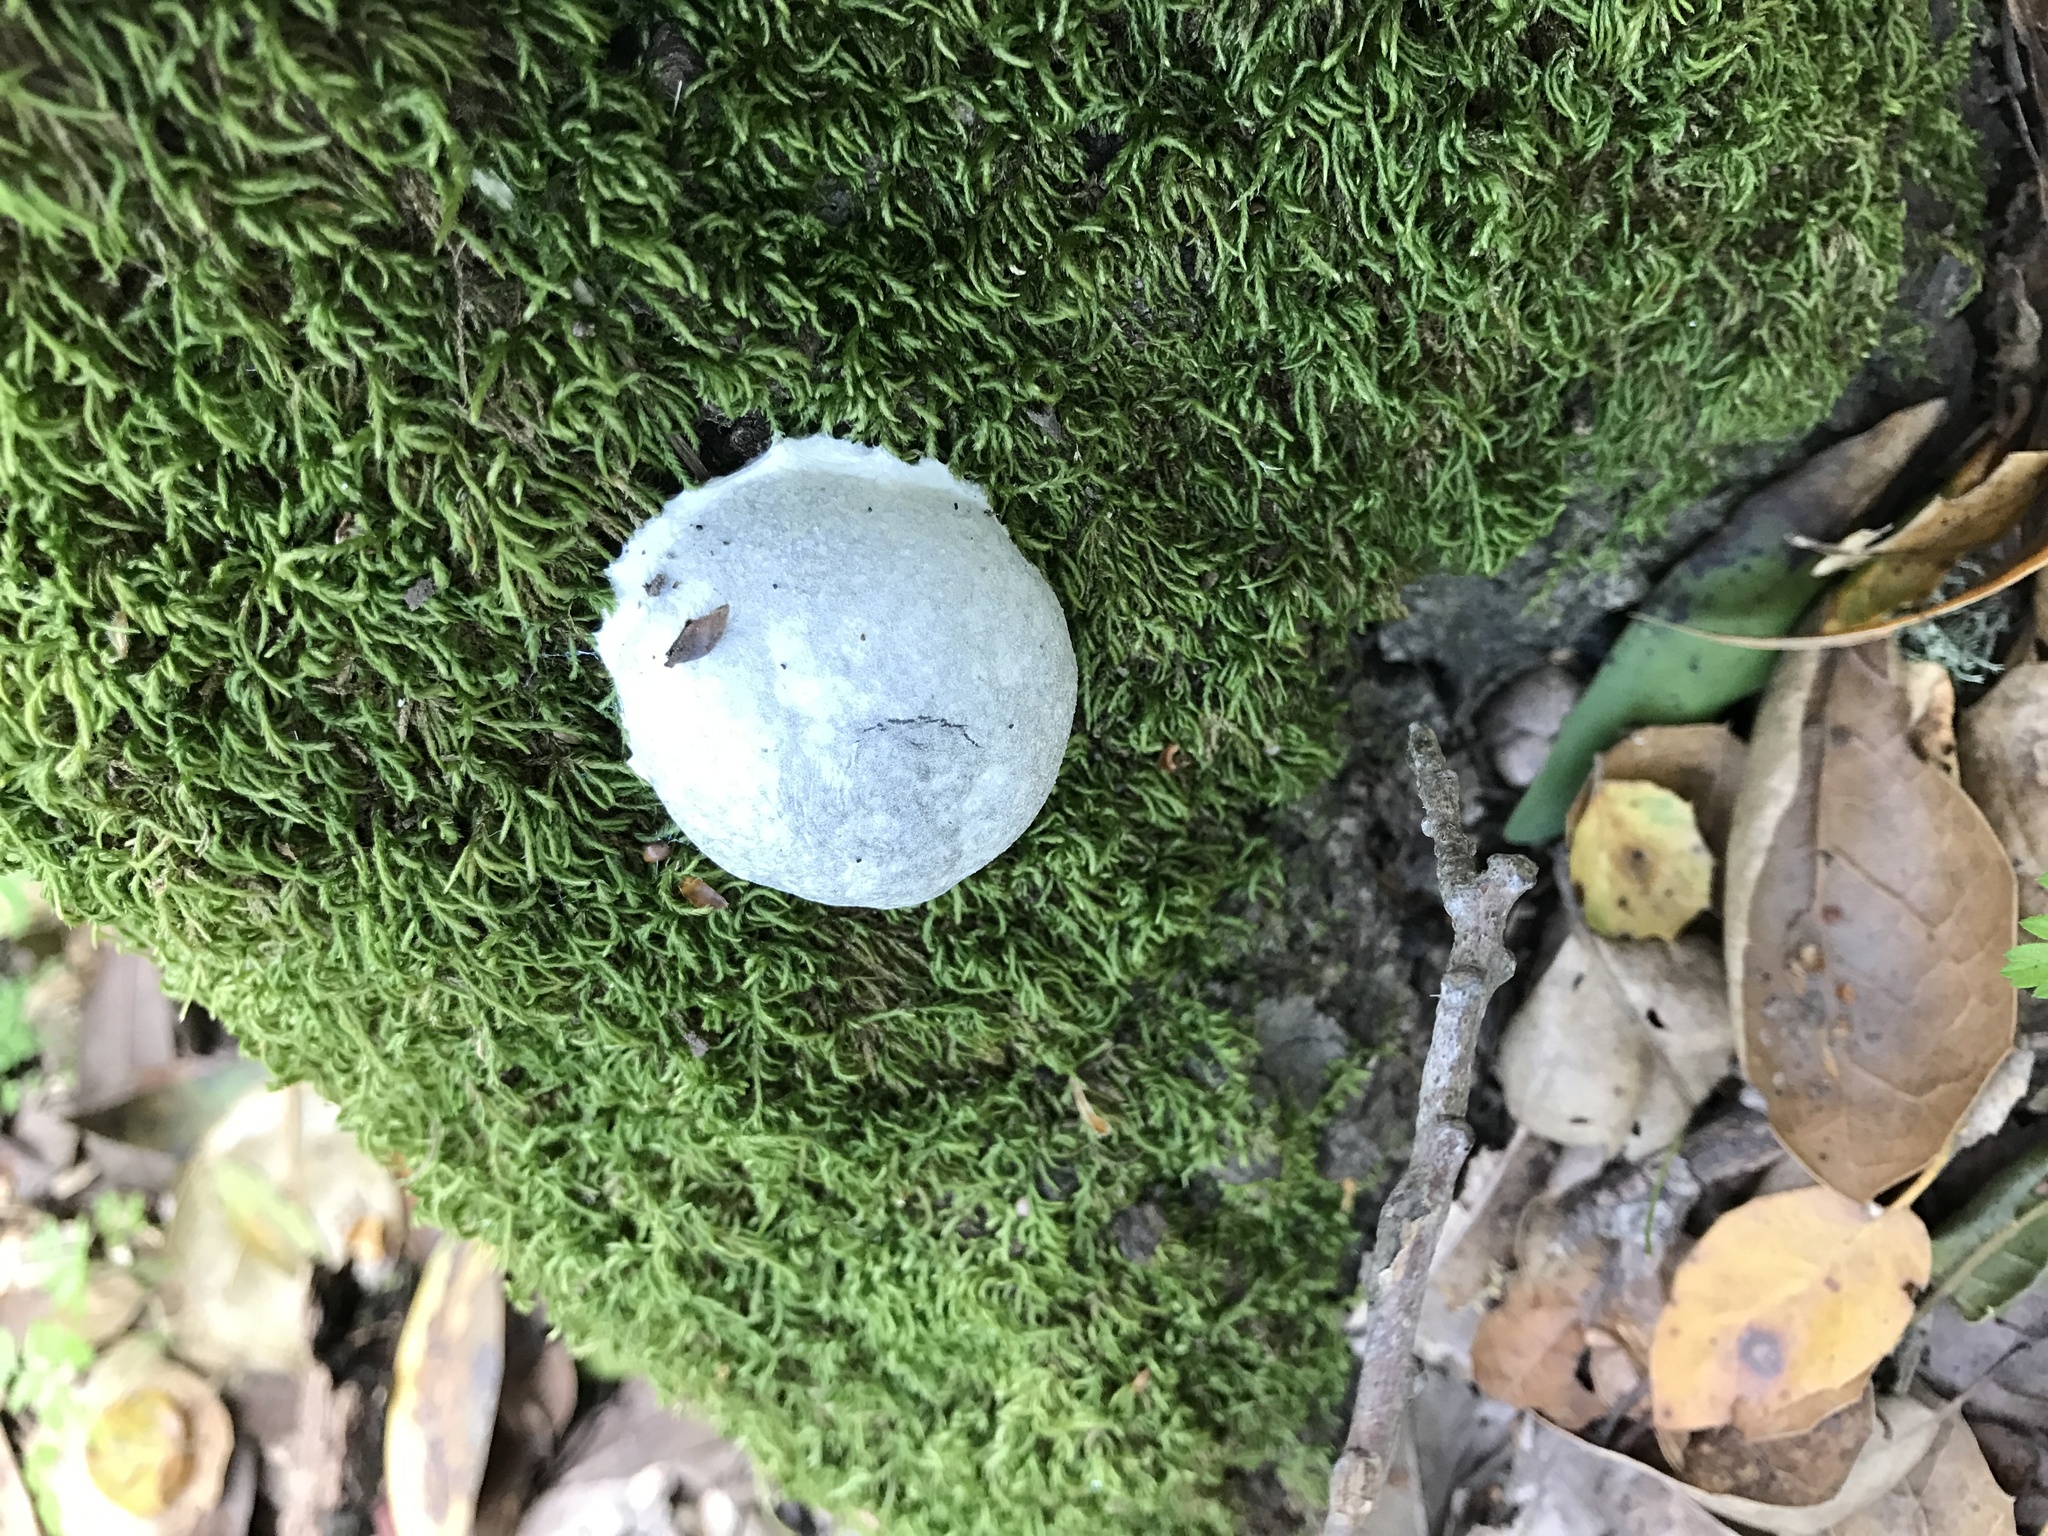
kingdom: Protozoa
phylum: Mycetozoa
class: Myxomycetes
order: Cribrariales
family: Tubiferaceae
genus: Reticularia
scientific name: Reticularia lycoperdon
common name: False puffball
